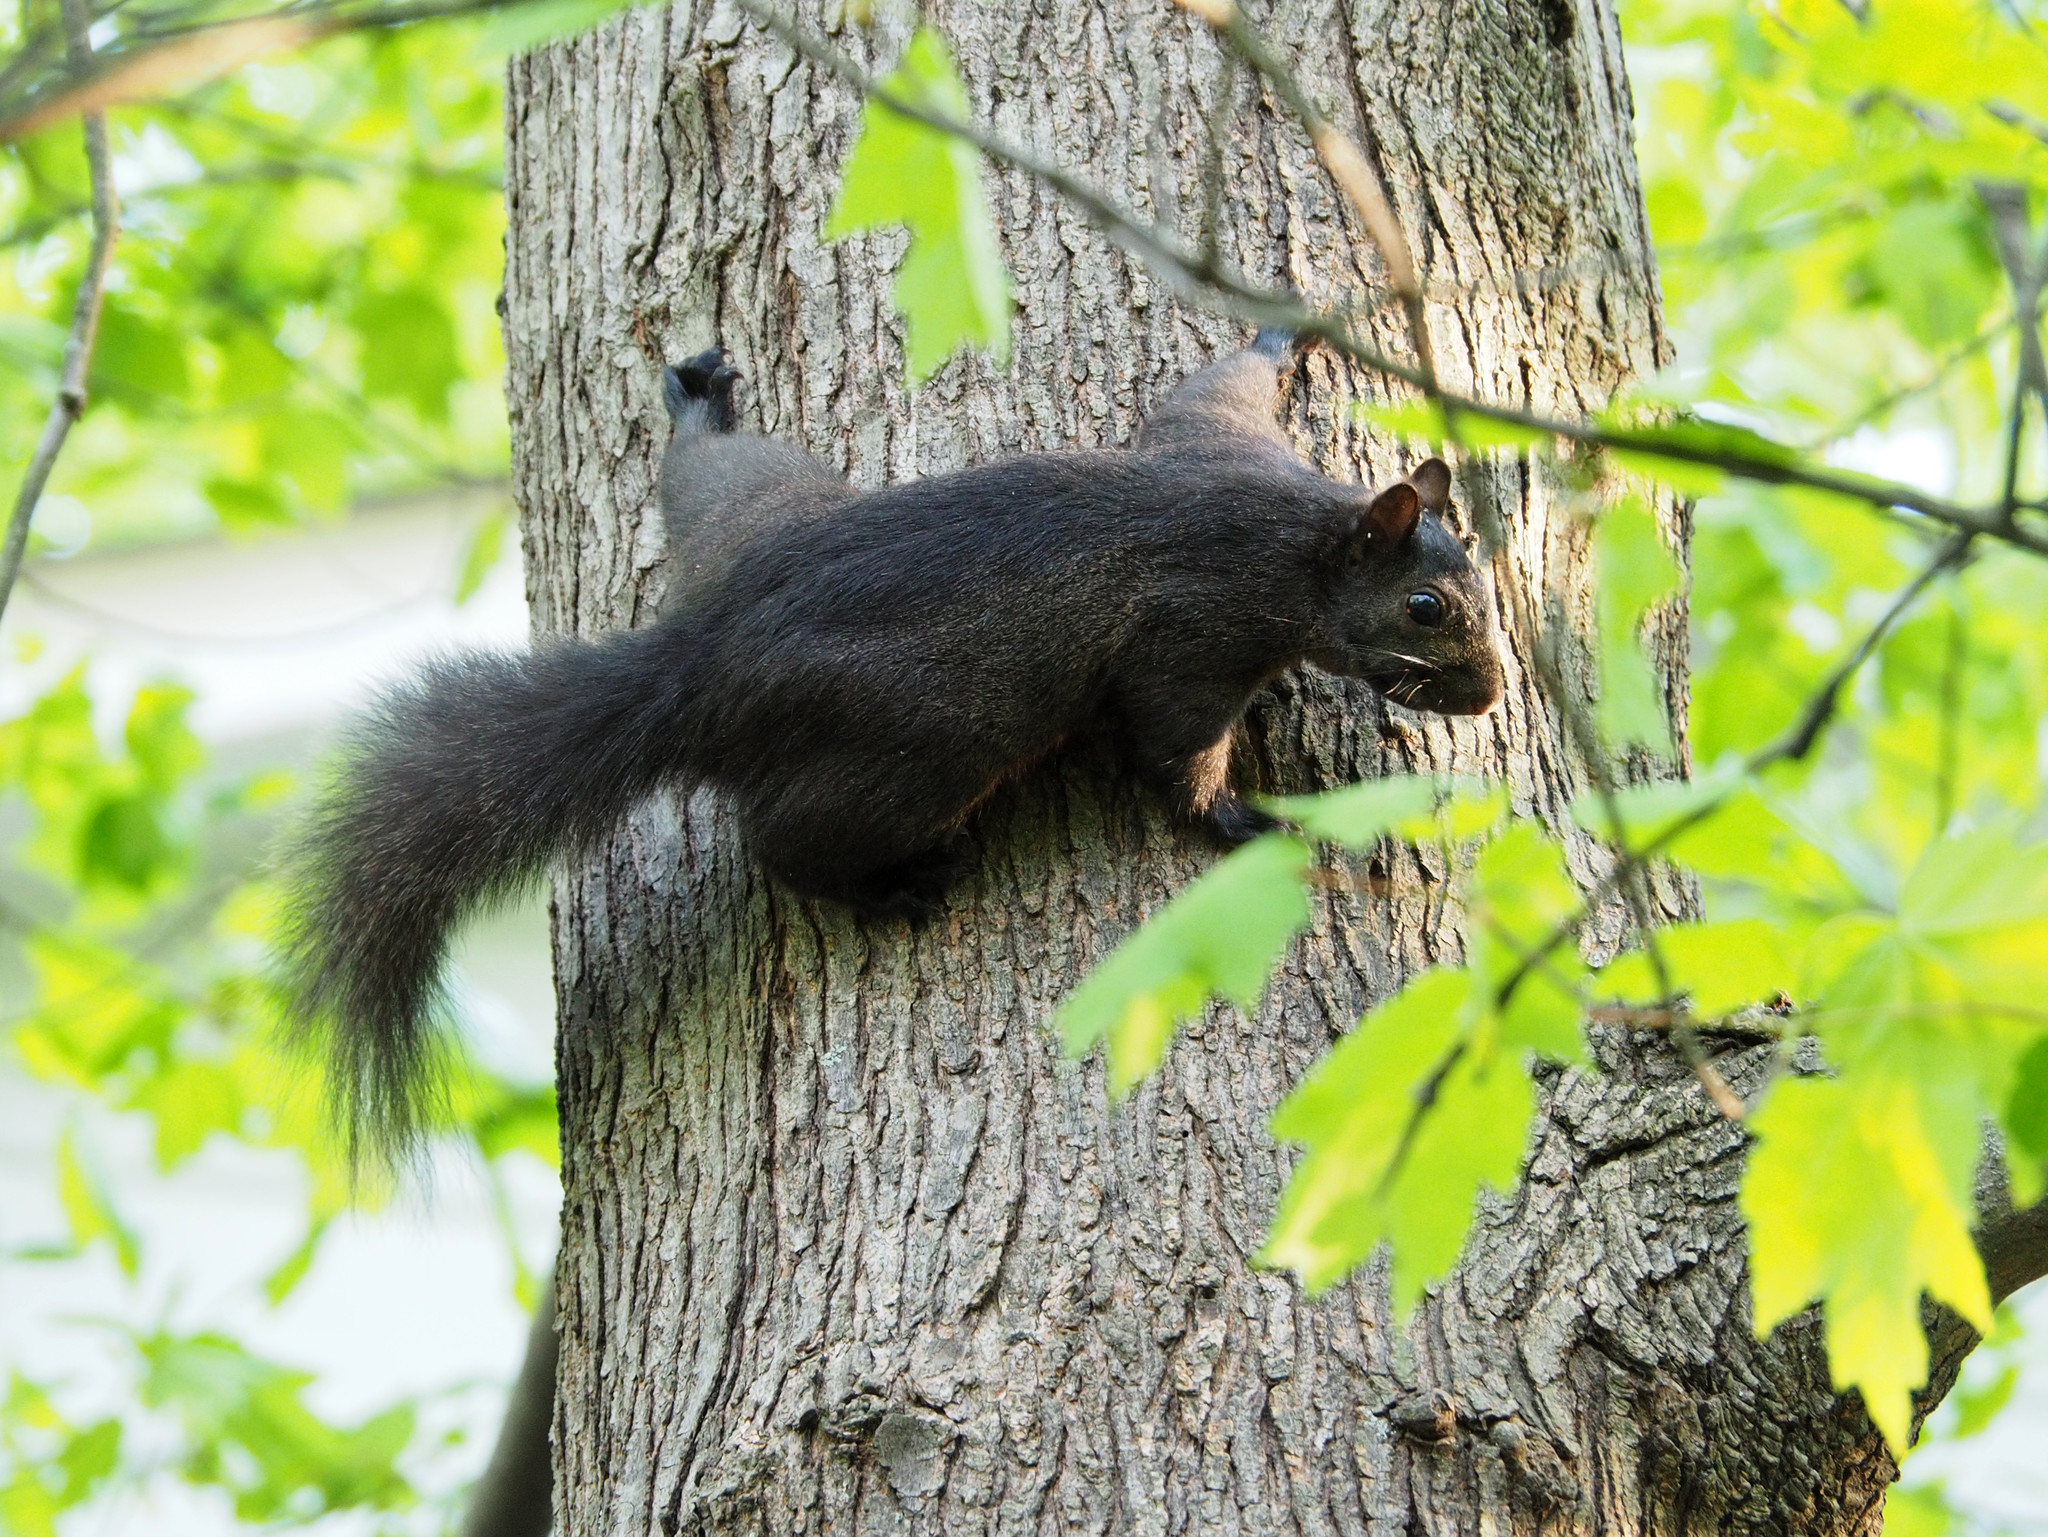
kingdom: Animalia
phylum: Chordata
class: Mammalia
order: Rodentia
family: Sciuridae
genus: Sciurus
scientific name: Sciurus carolinensis
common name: Eastern gray squirrel
